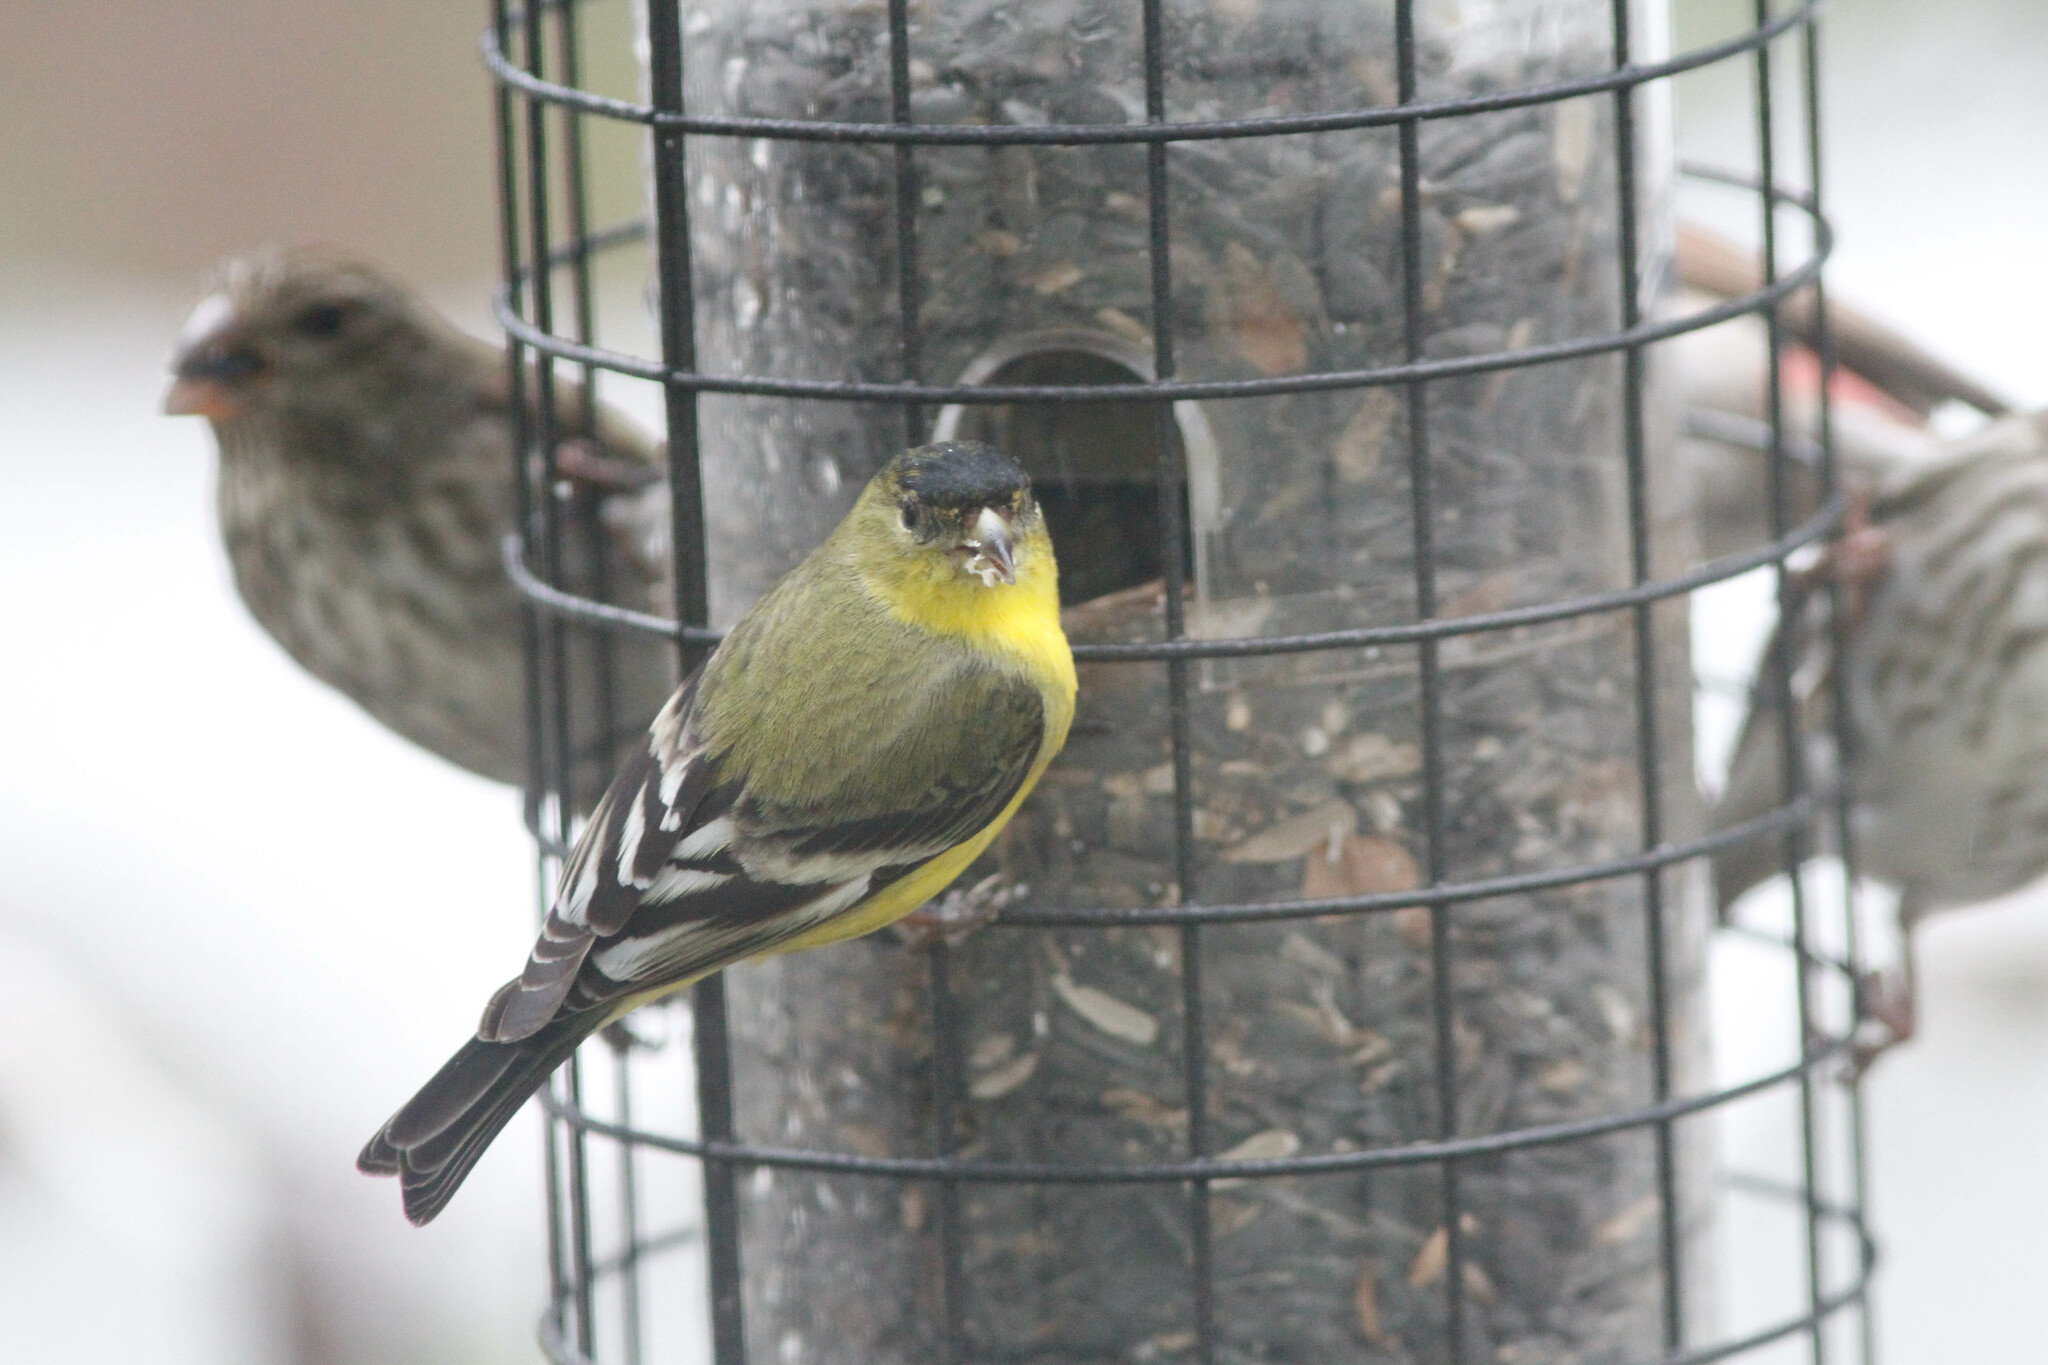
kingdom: Animalia
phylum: Chordata
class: Aves
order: Passeriformes
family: Fringillidae
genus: Spinus
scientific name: Spinus psaltria
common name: Lesser goldfinch
